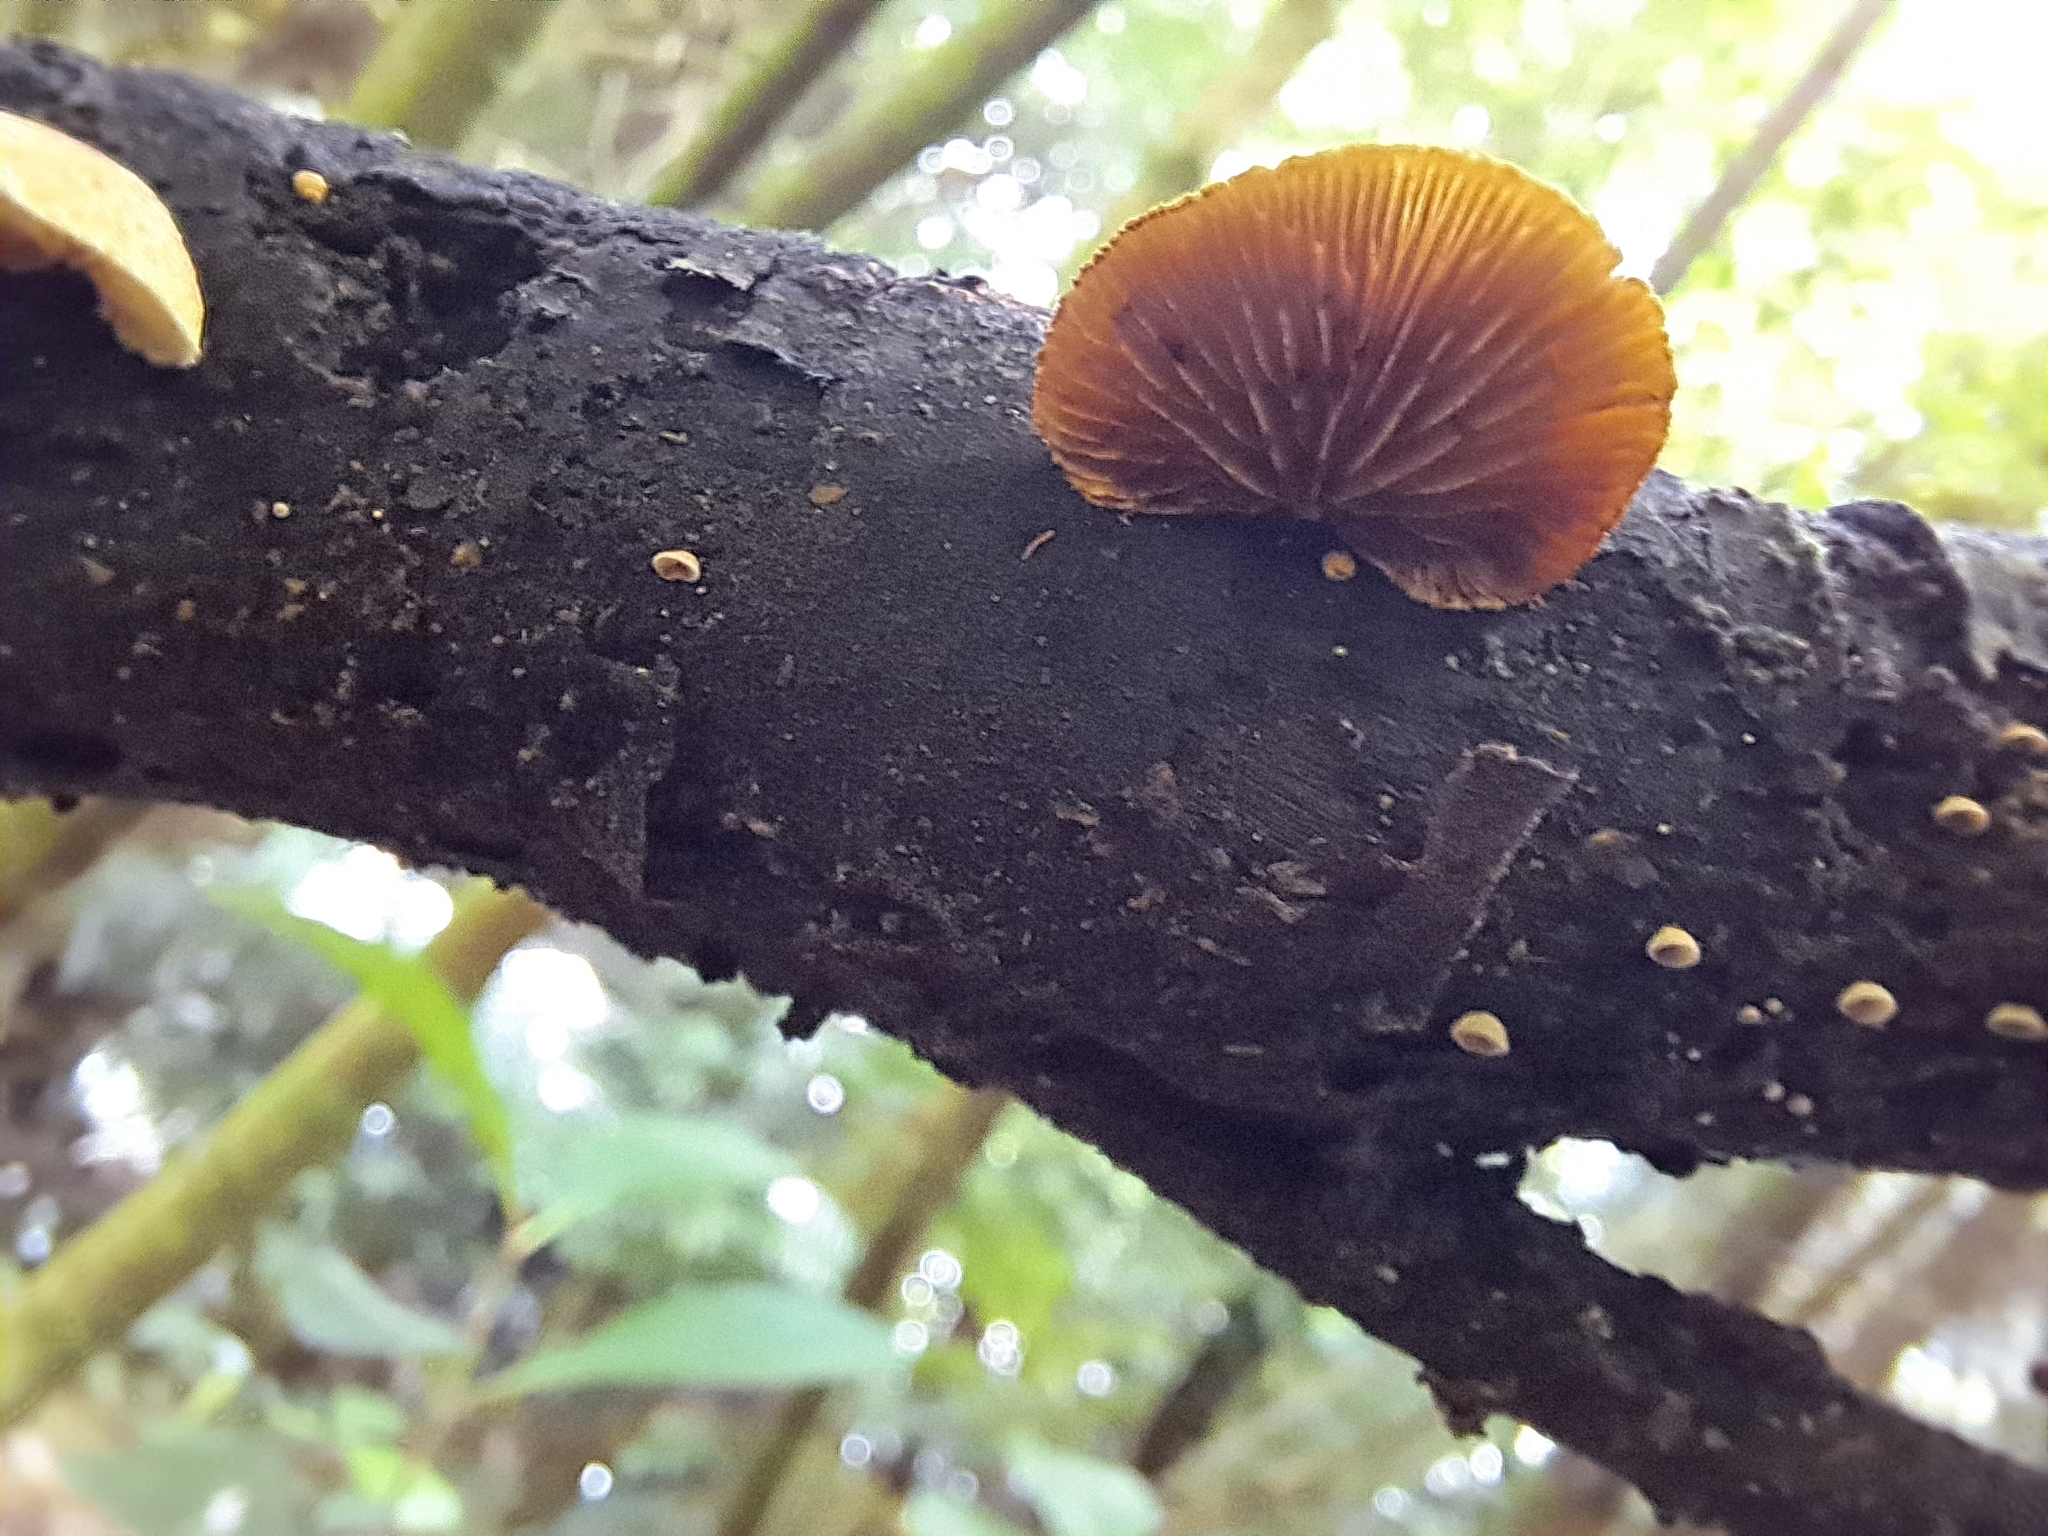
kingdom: Fungi
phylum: Basidiomycota
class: Agaricomycetes
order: Agaricales
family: Crepidotaceae
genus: Pleuroflammula
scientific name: Pleuroflammula praestans
